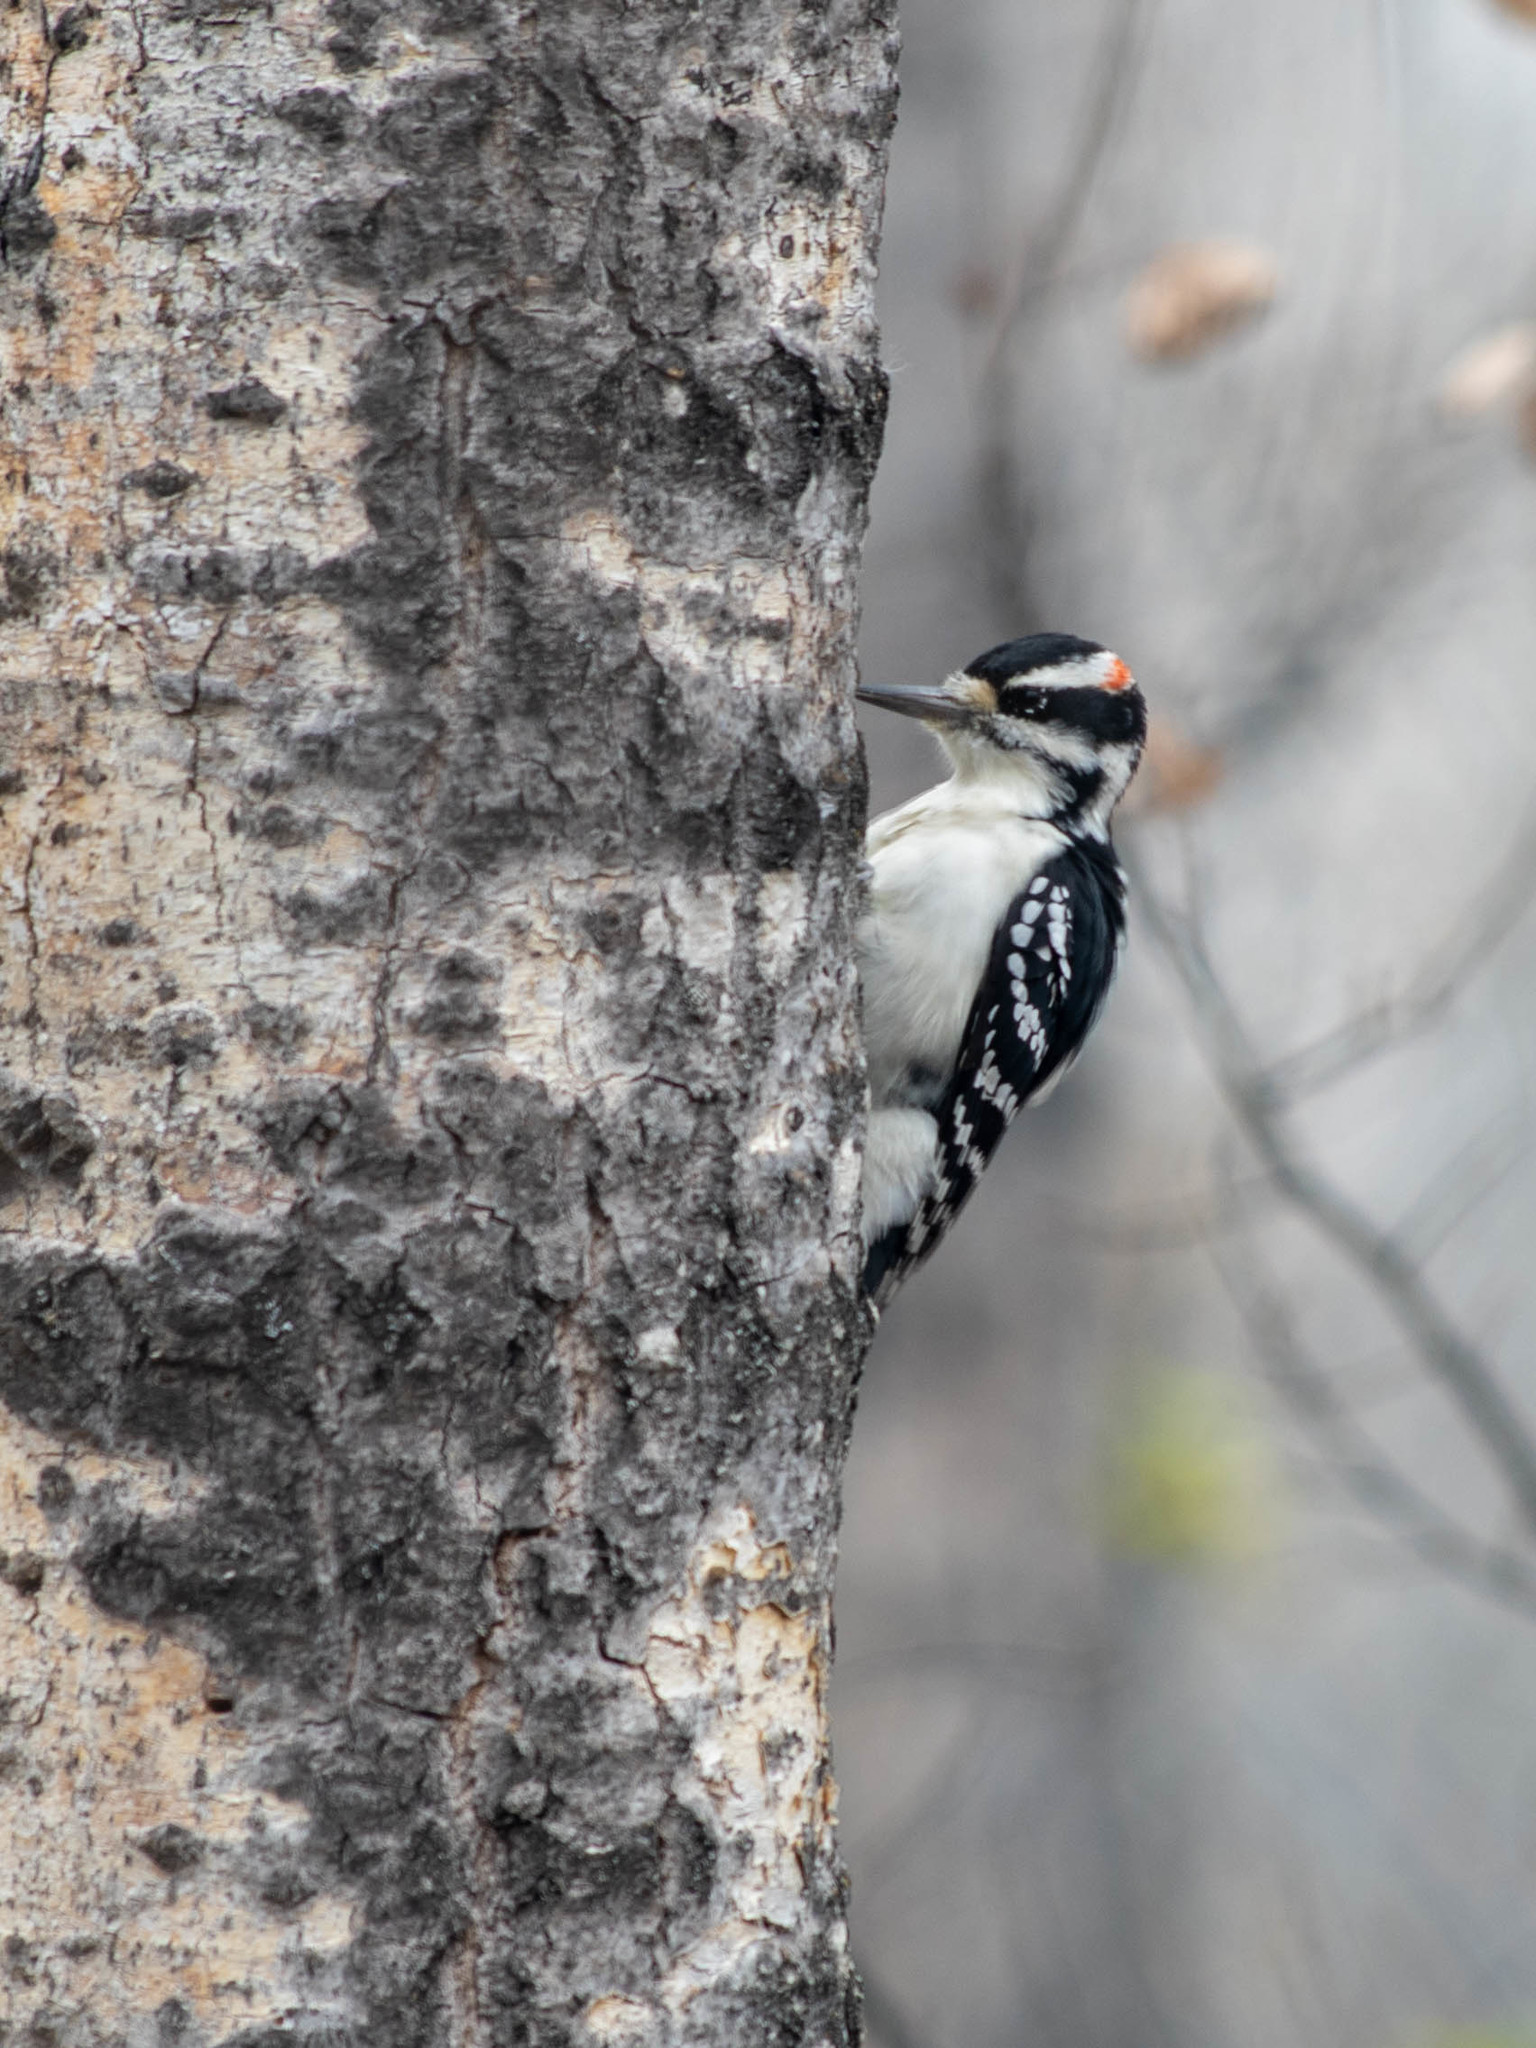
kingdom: Animalia
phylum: Chordata
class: Aves
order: Piciformes
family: Picidae
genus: Leuconotopicus
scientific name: Leuconotopicus villosus
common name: Hairy woodpecker
